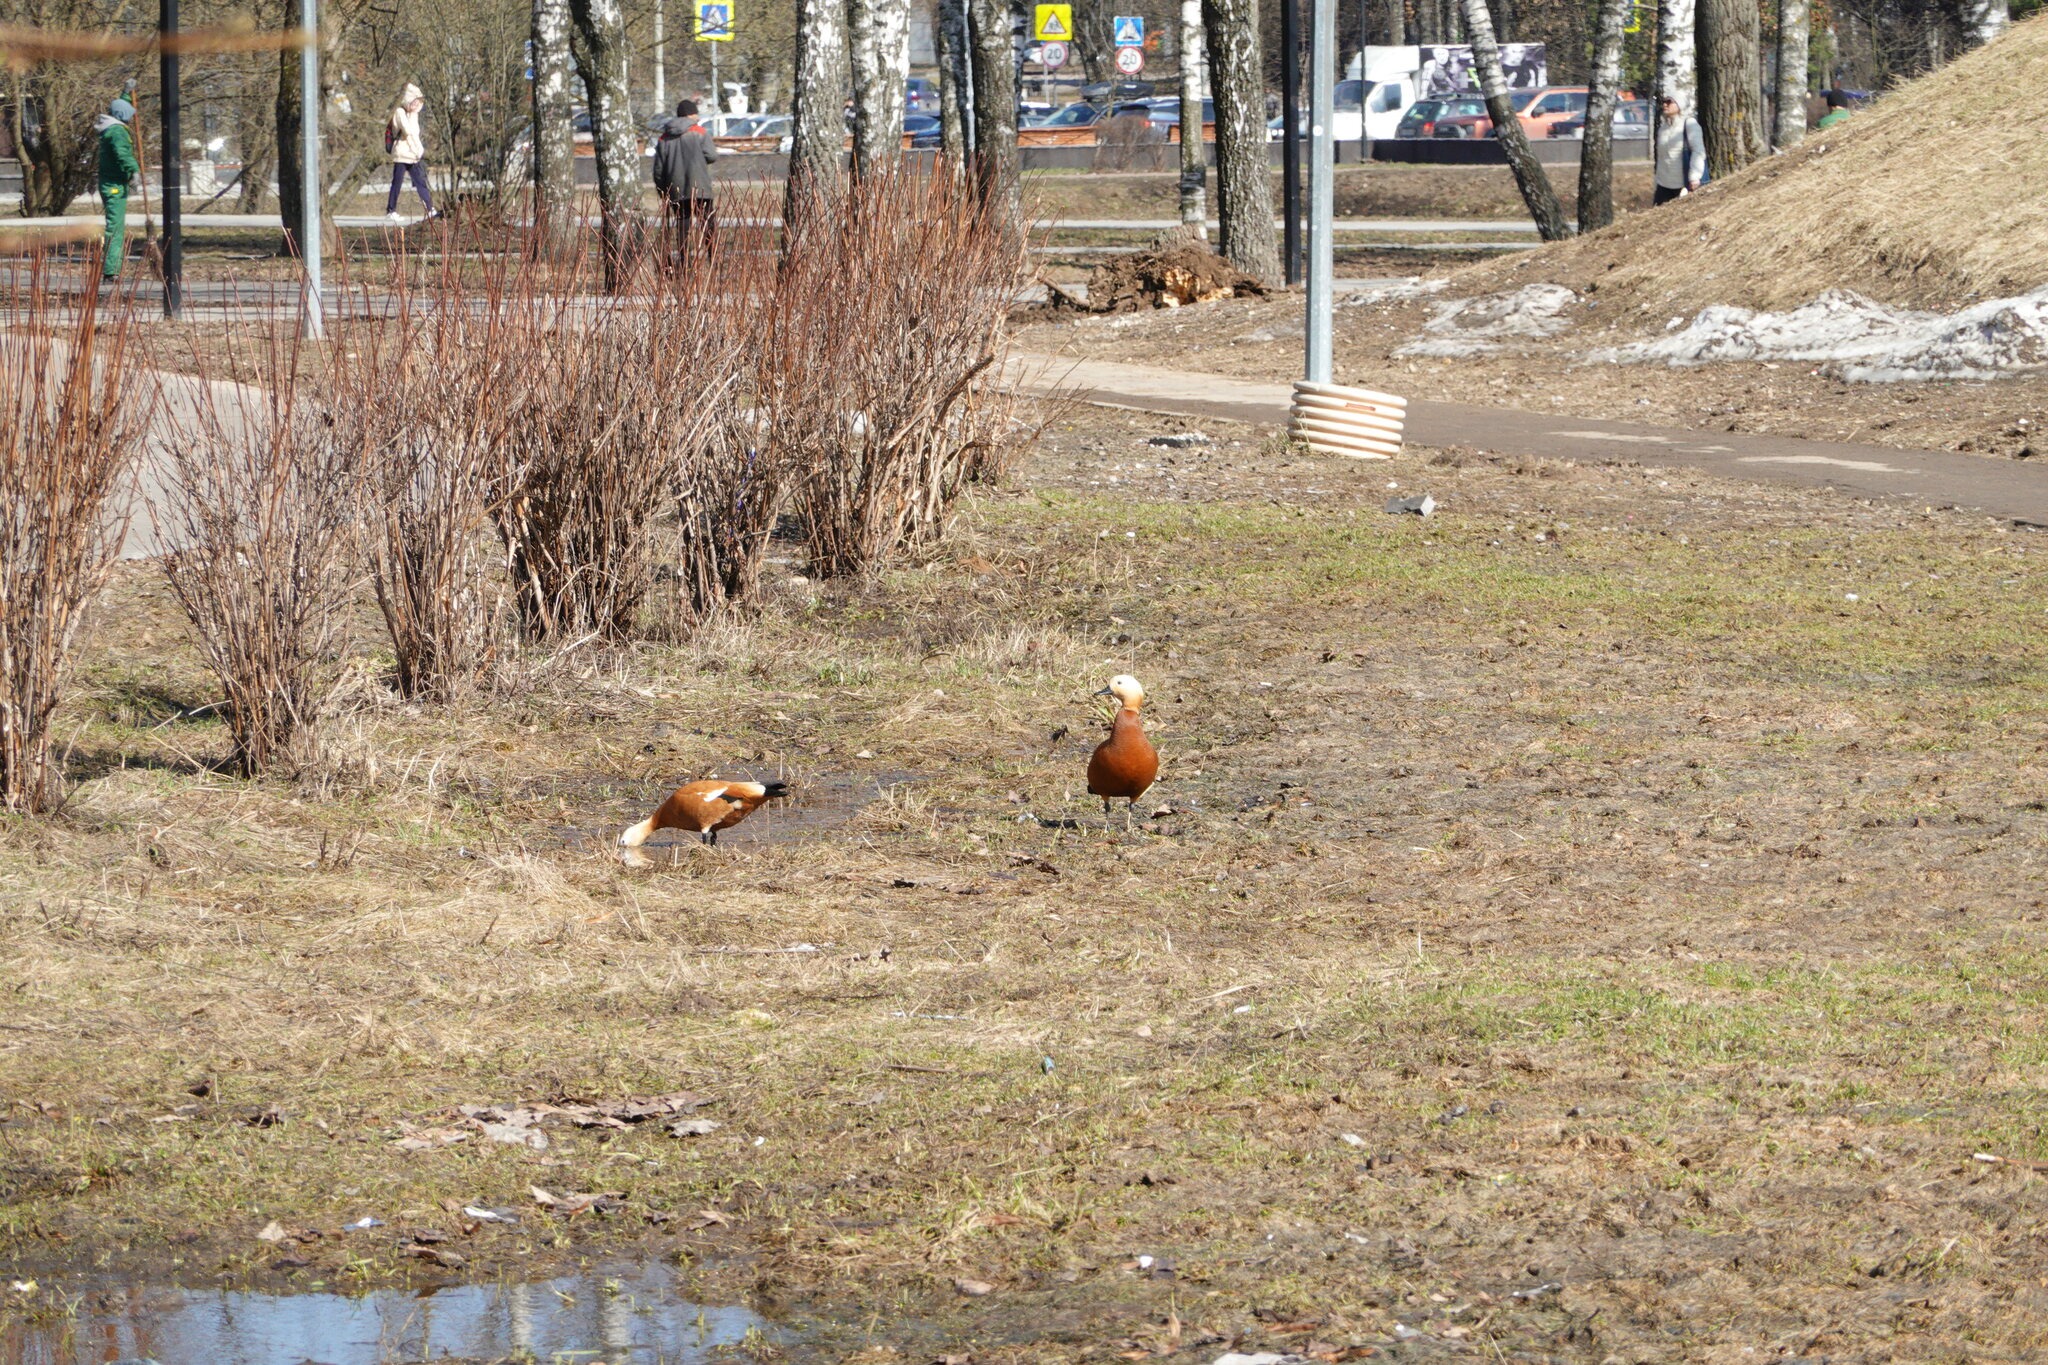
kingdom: Animalia
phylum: Chordata
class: Aves
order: Anseriformes
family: Anatidae
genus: Tadorna
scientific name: Tadorna ferruginea
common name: Ruddy shelduck
